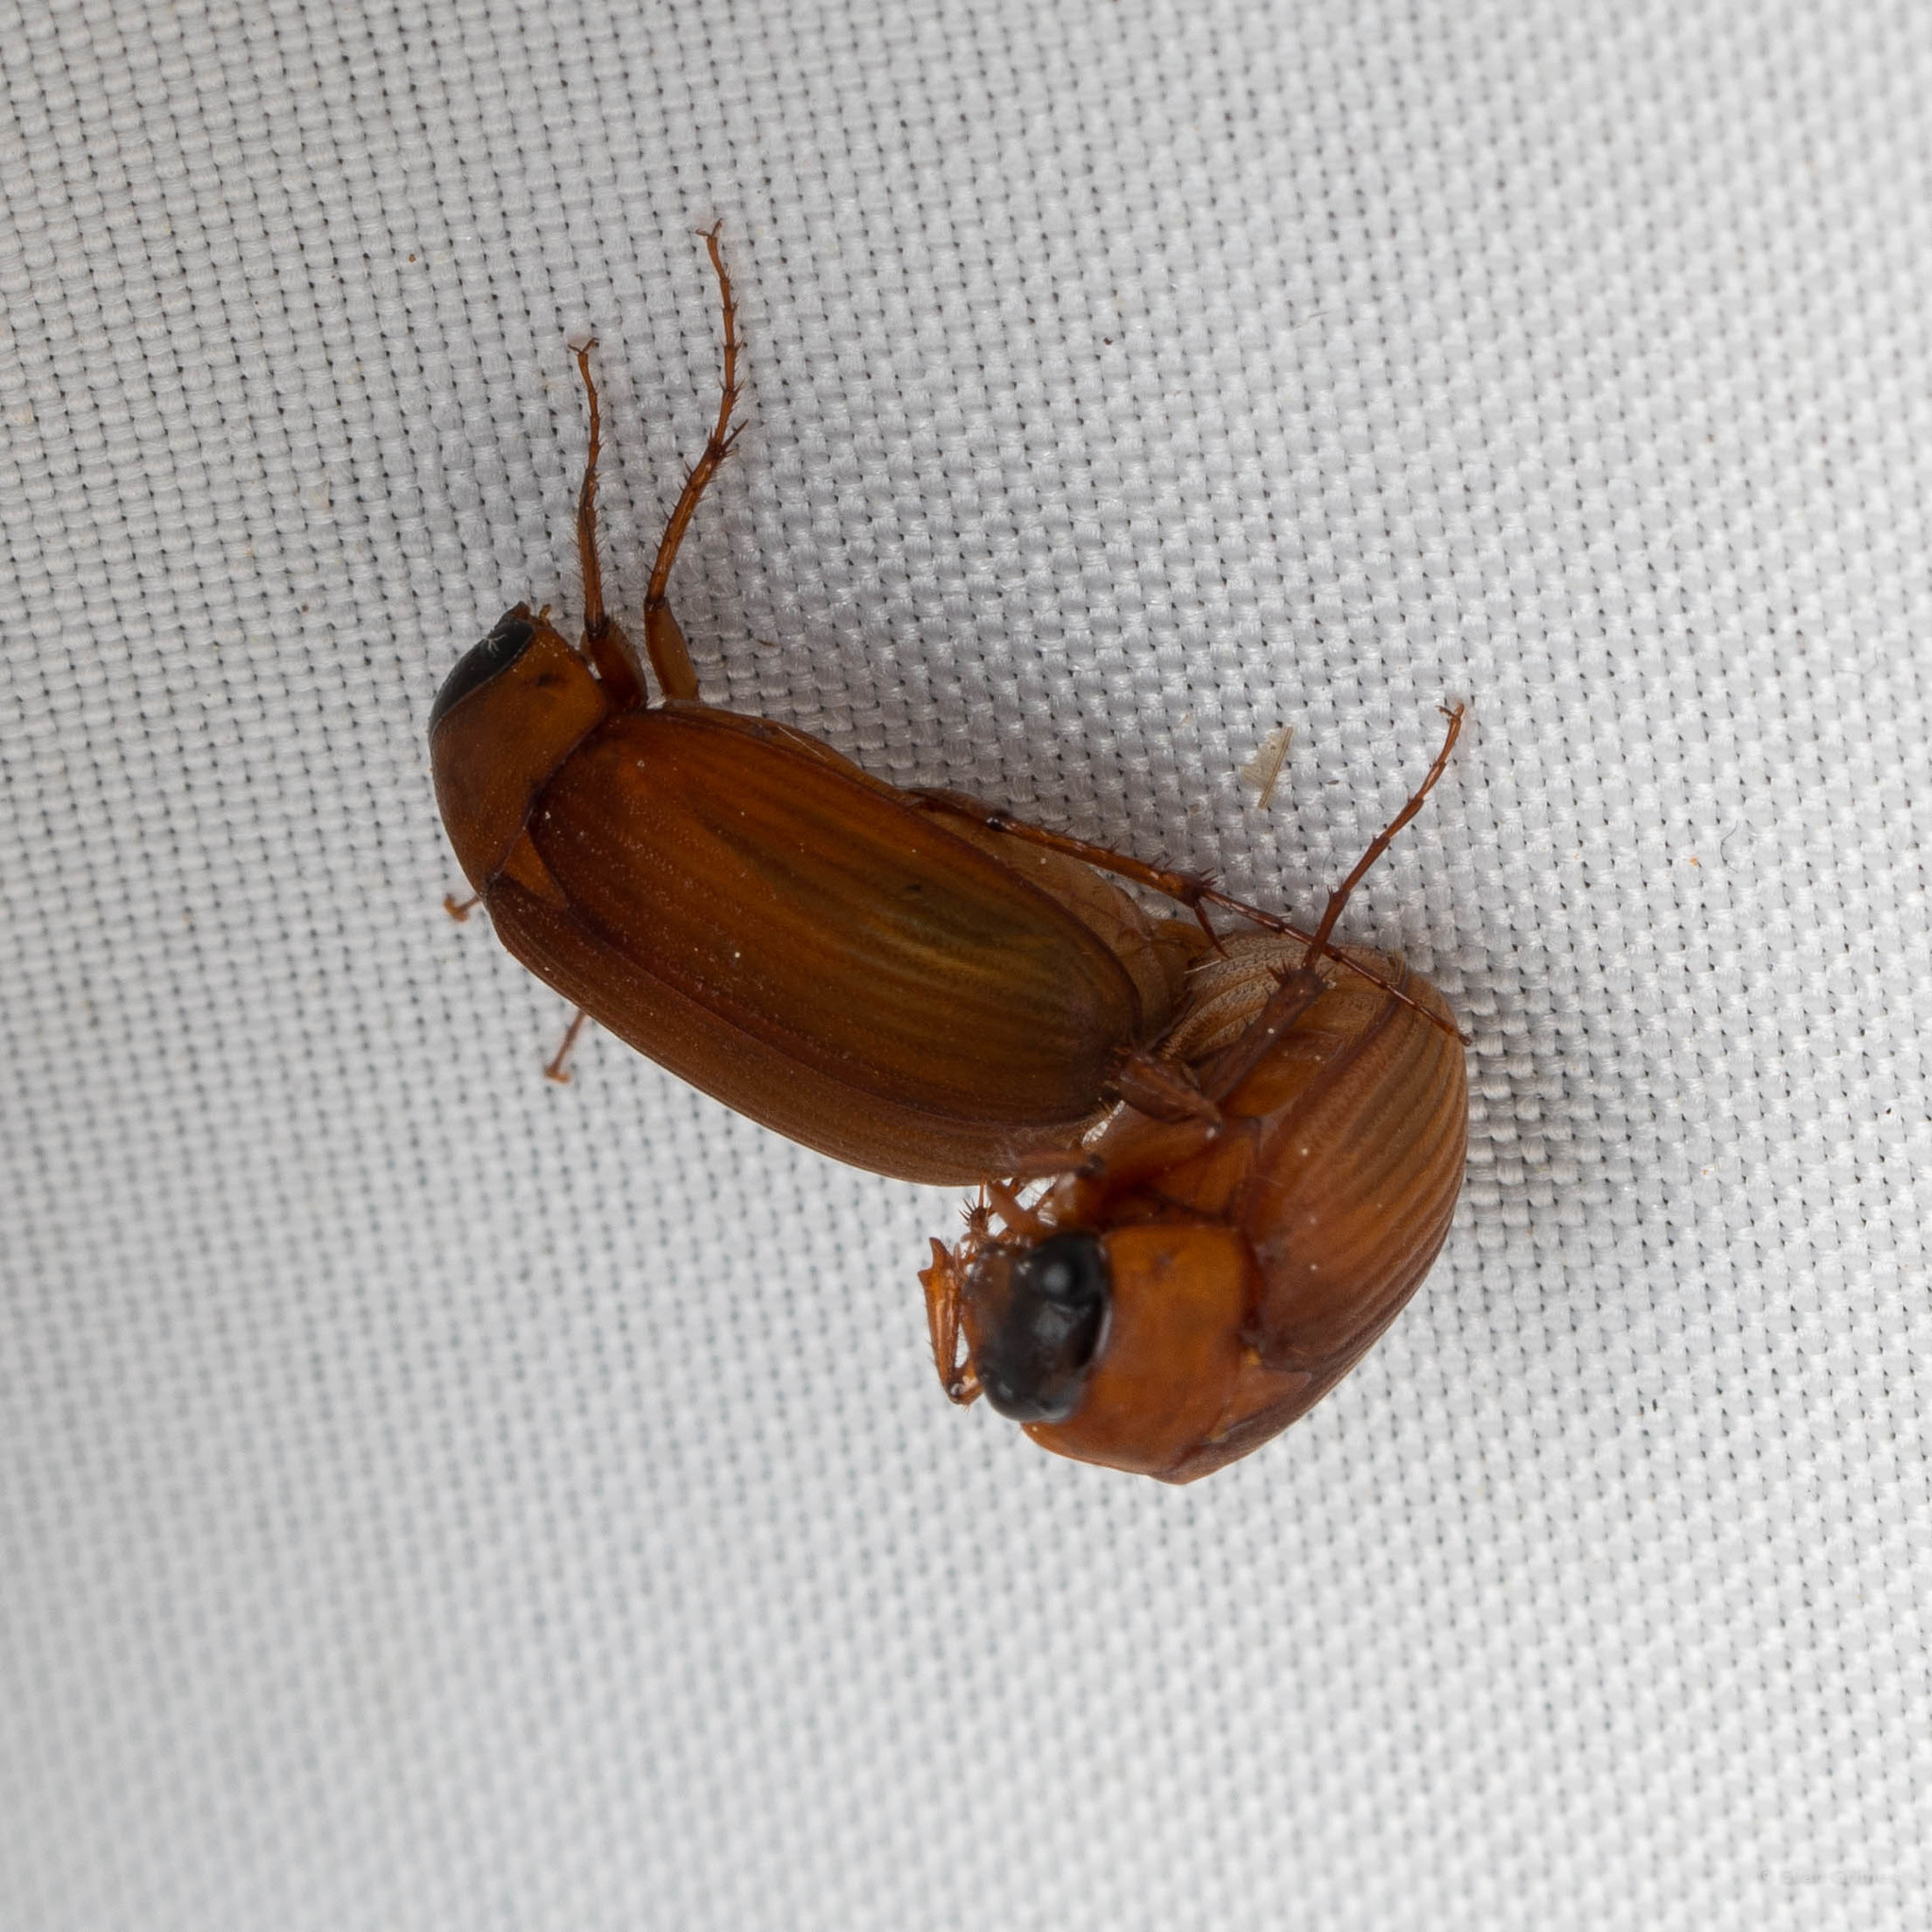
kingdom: Animalia
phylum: Arthropoda
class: Insecta
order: Coleoptera
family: Scarabaeidae
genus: Maladera
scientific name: Maladera formosae
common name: Asiatic garden beetle
